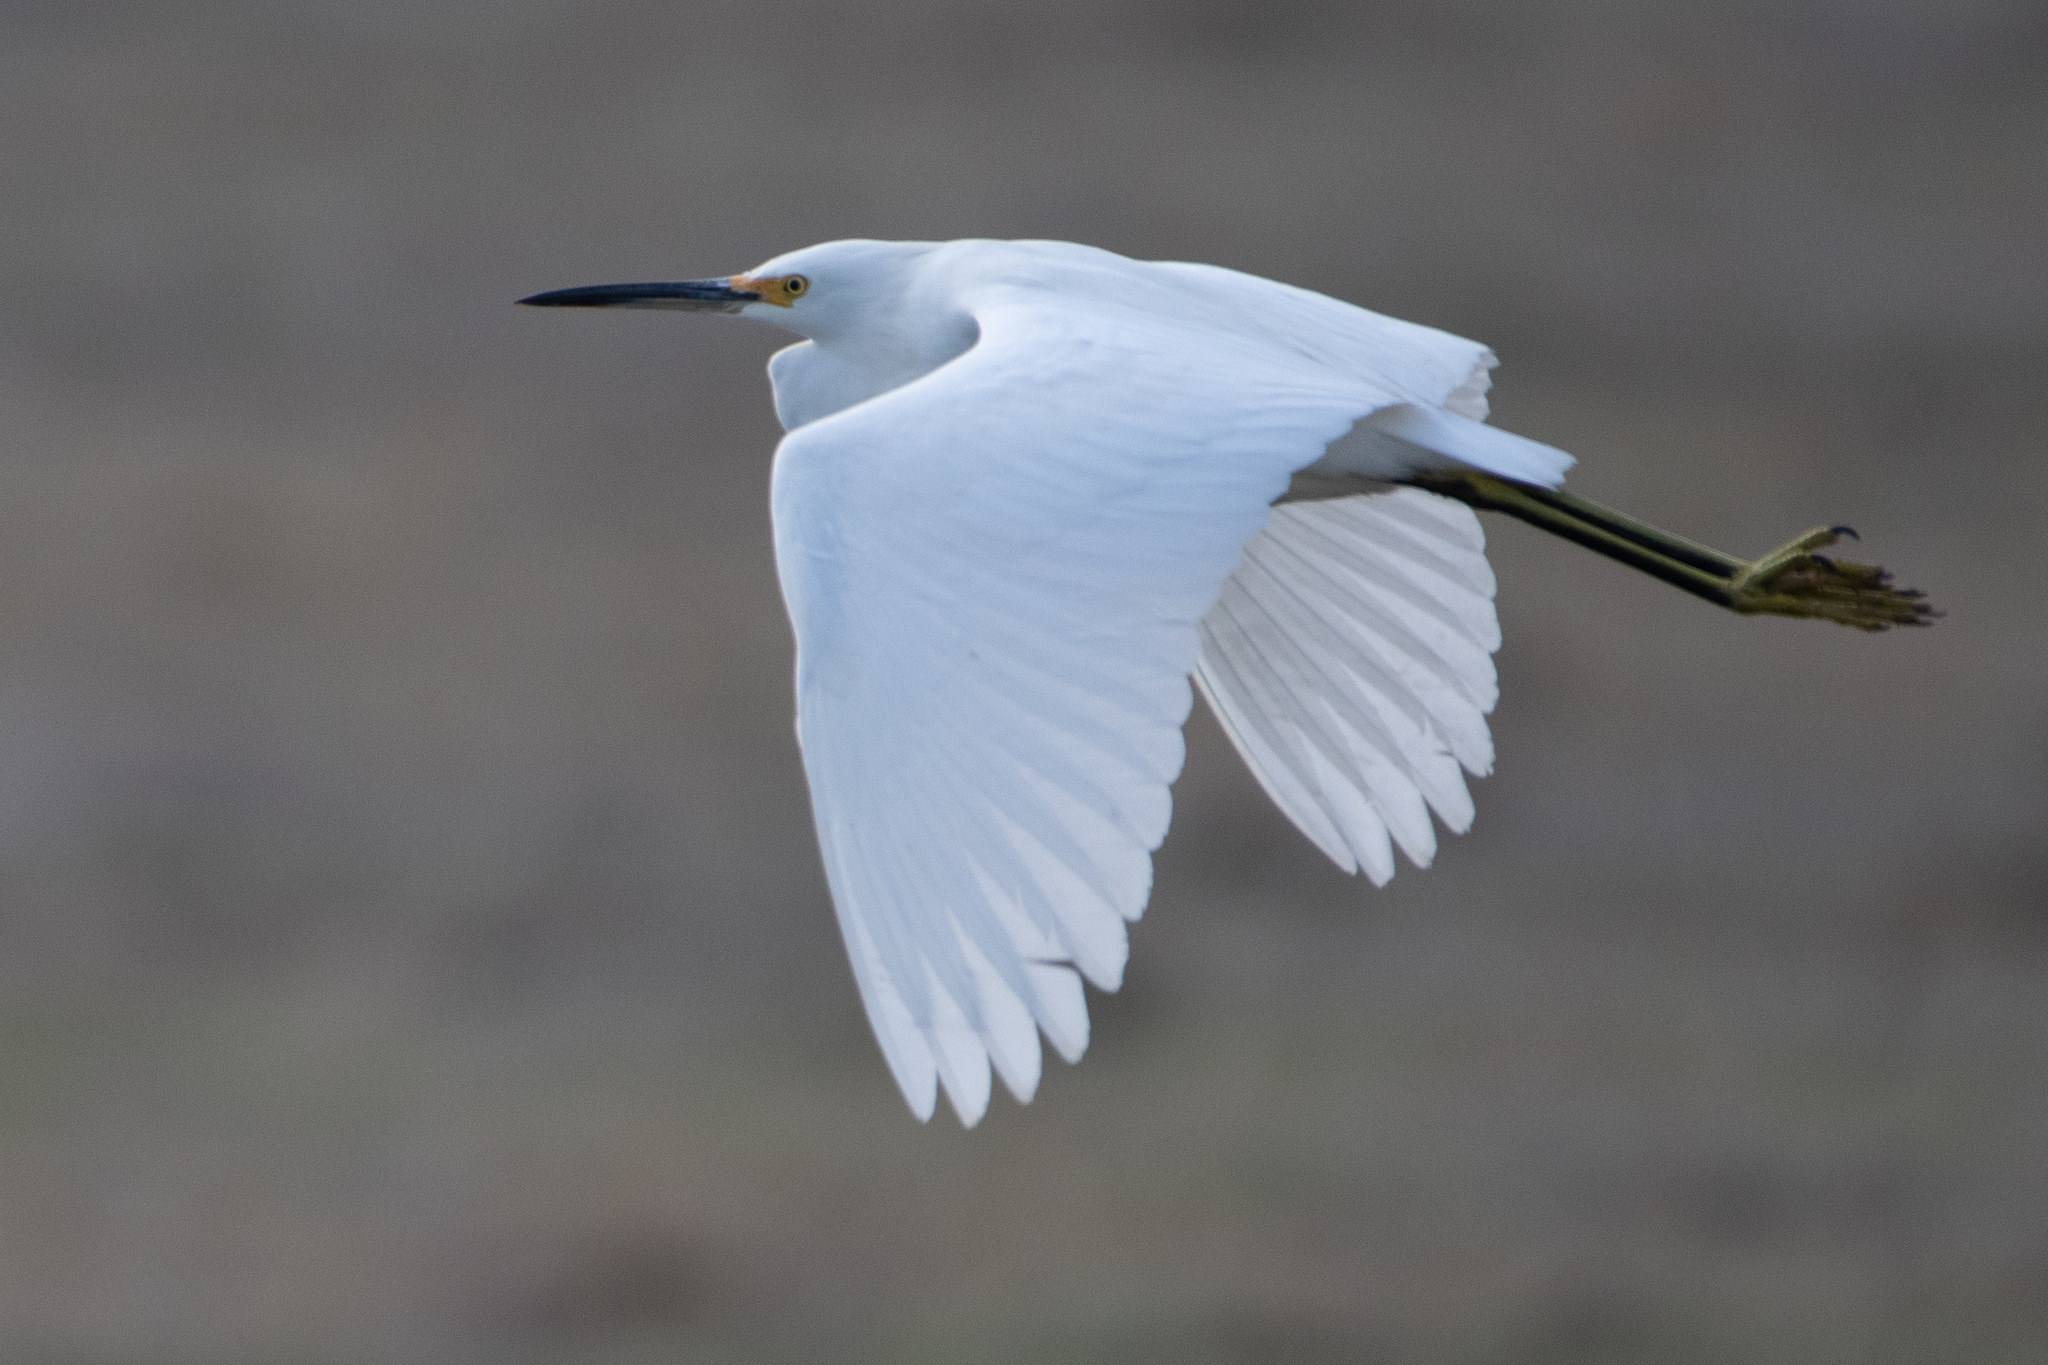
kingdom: Animalia
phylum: Chordata
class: Aves
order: Pelecaniformes
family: Ardeidae
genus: Egretta
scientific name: Egretta thula
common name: Snowy egret
